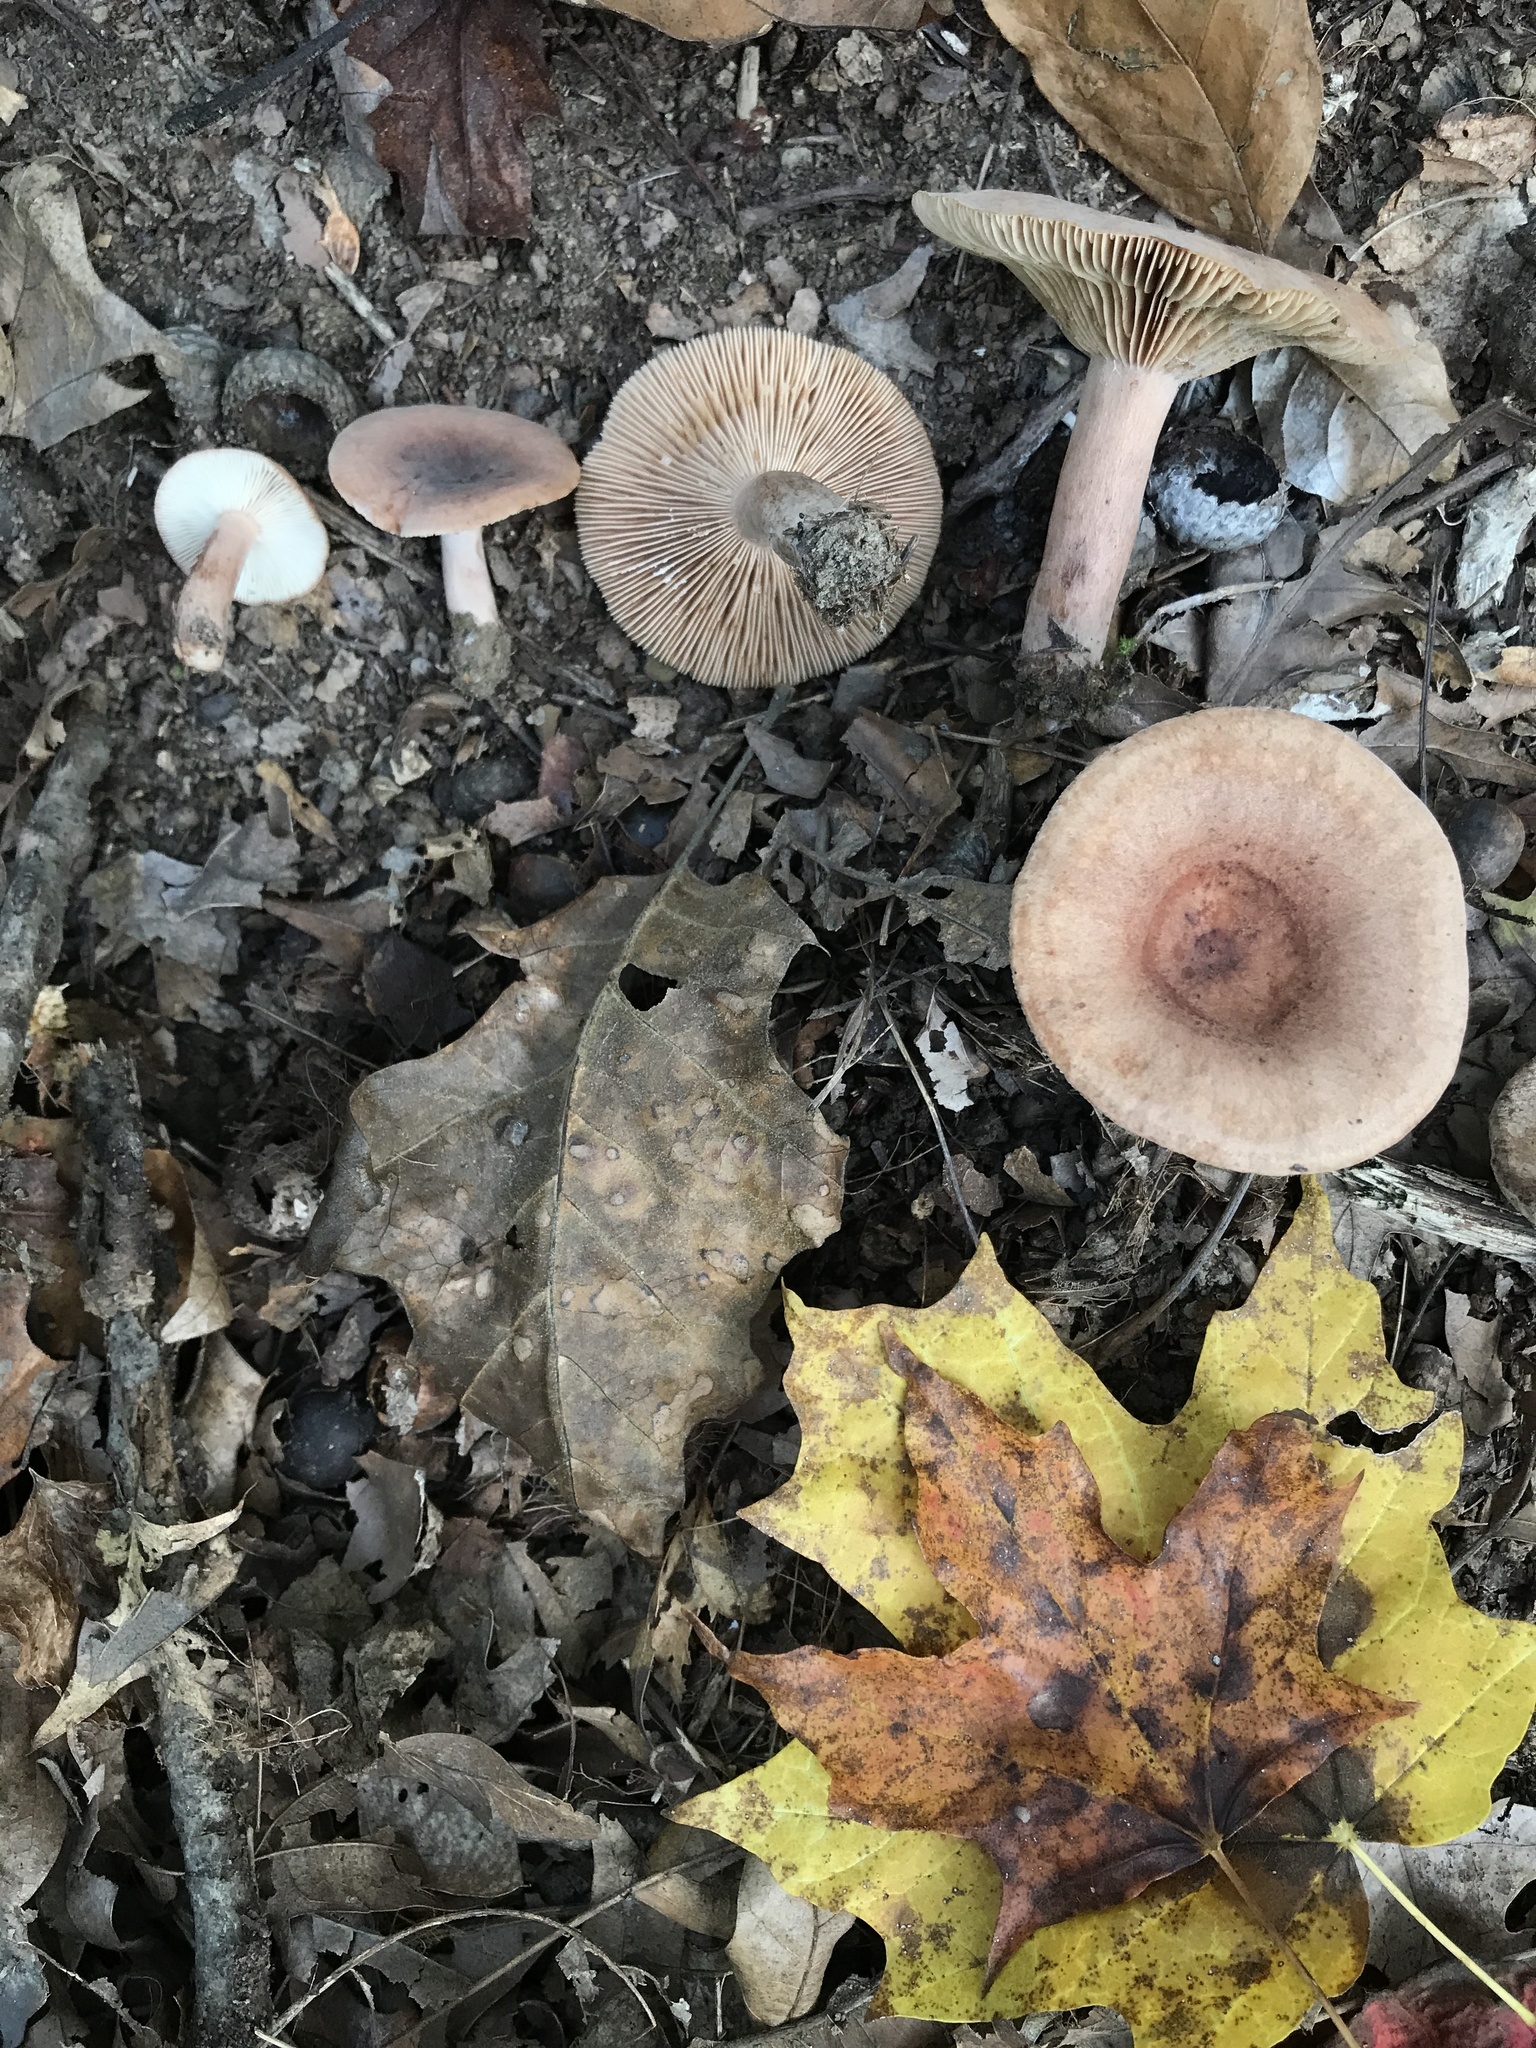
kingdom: Fungi
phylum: Basidiomycota
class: Agaricomycetes
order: Russulales
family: Russulaceae
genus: Lactarius
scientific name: Lactarius mutabilis
